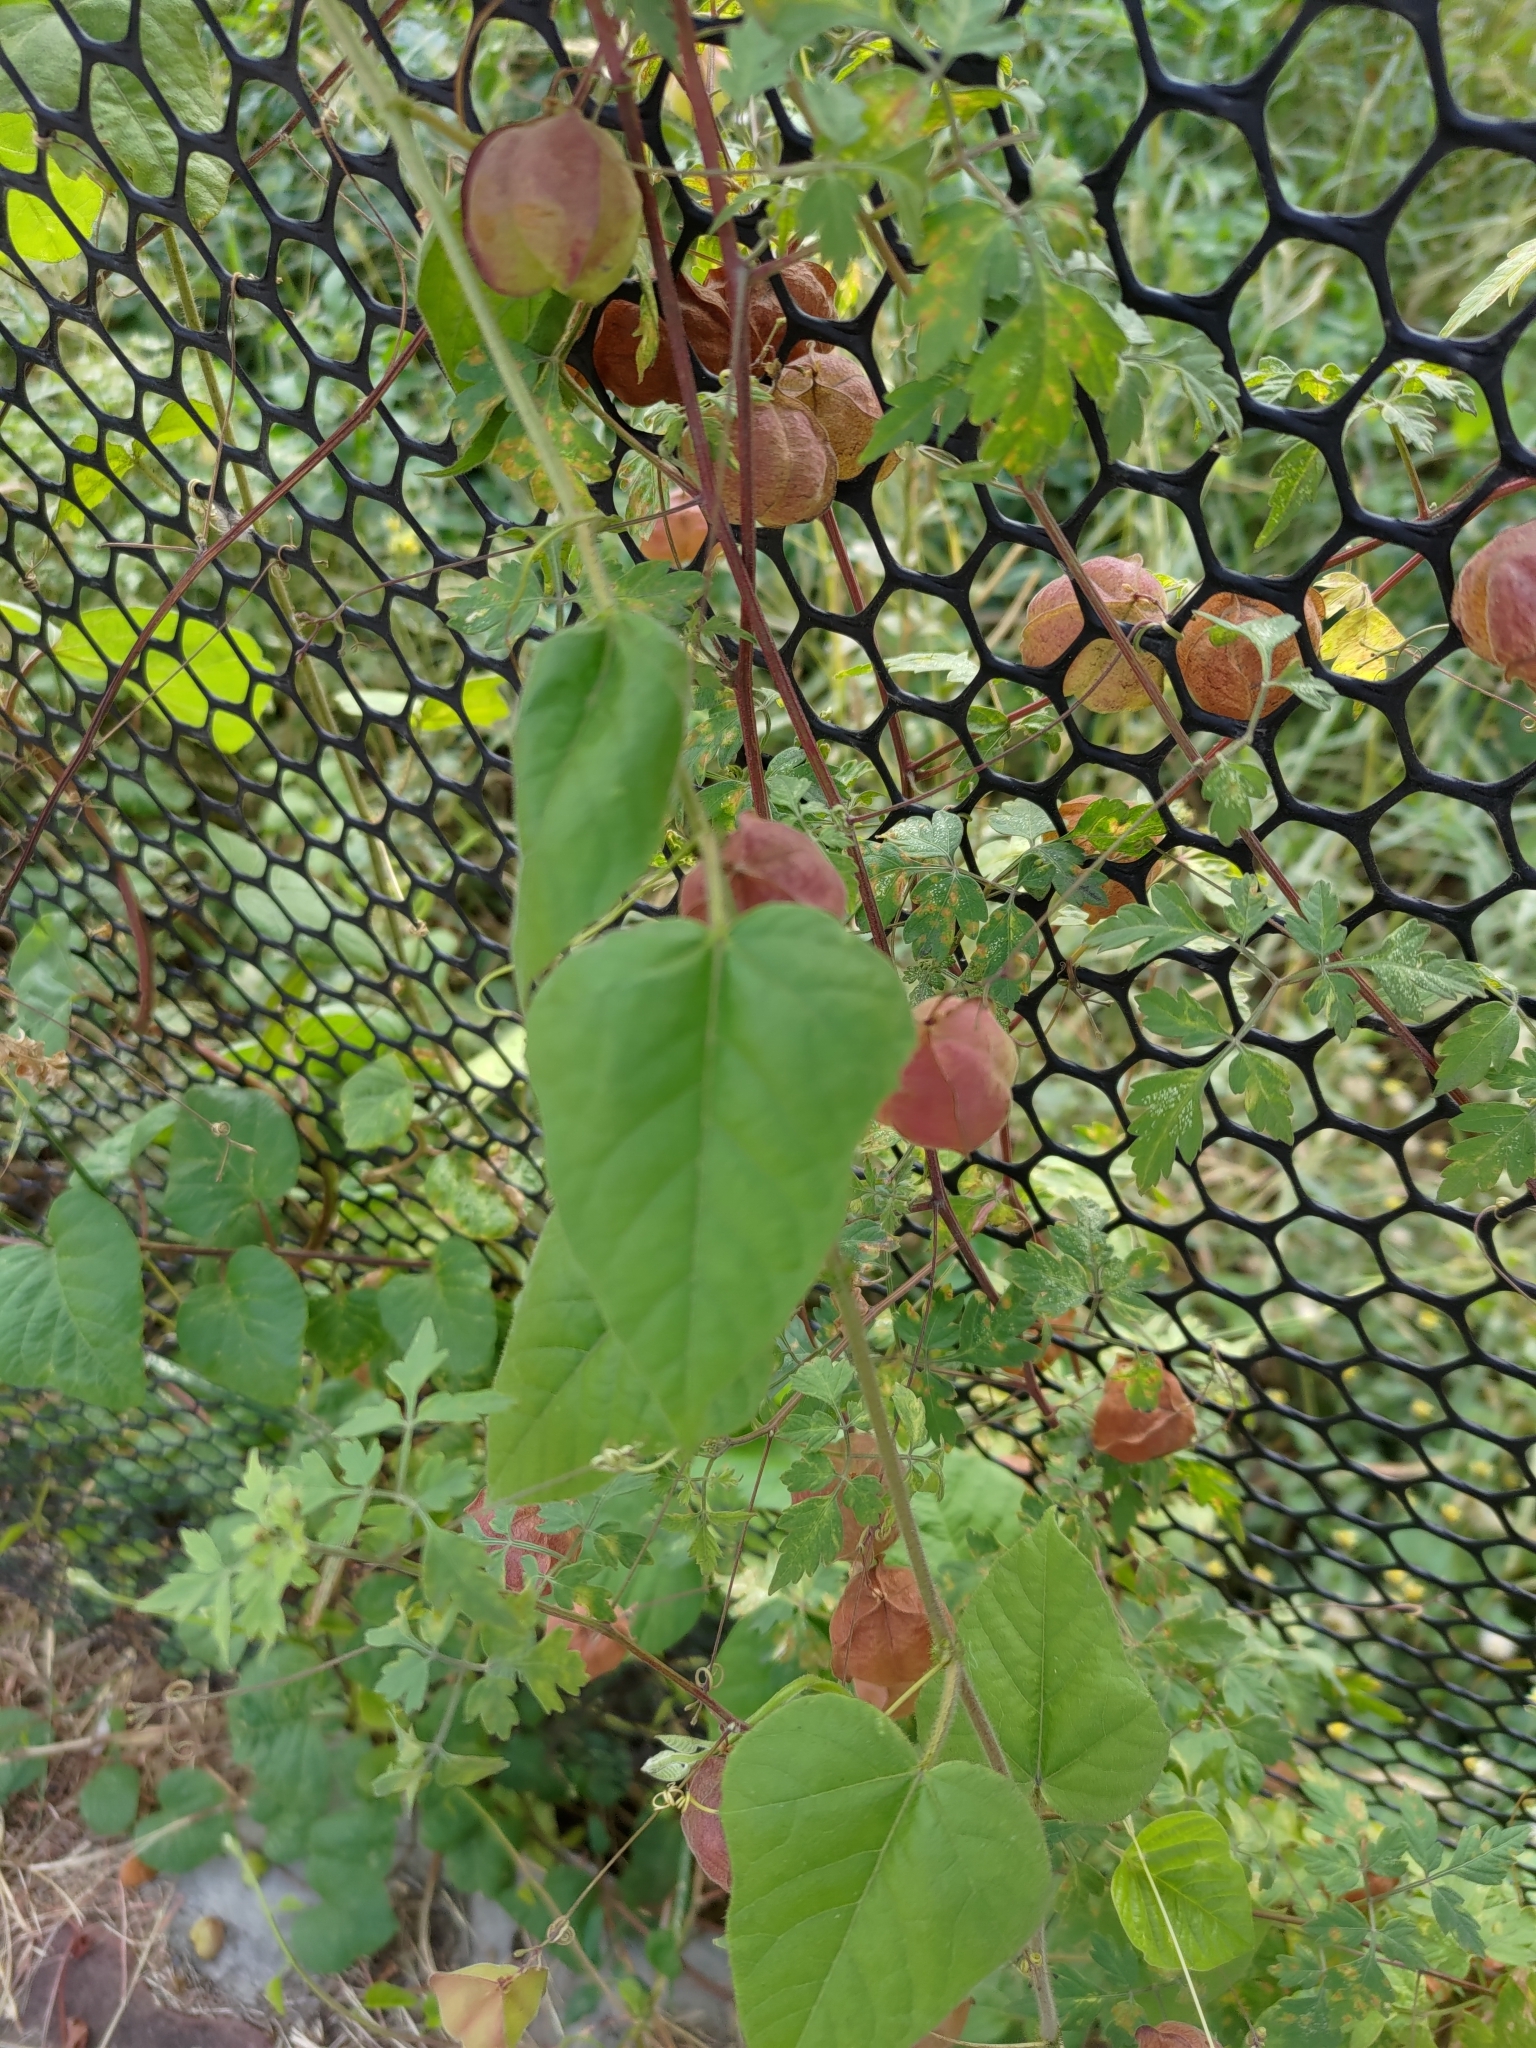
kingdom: Plantae
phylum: Tracheophyta
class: Magnoliopsida
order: Sapindales
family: Sapindaceae
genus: Cardiospermum
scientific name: Cardiospermum halicacabum
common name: Balloon vine
